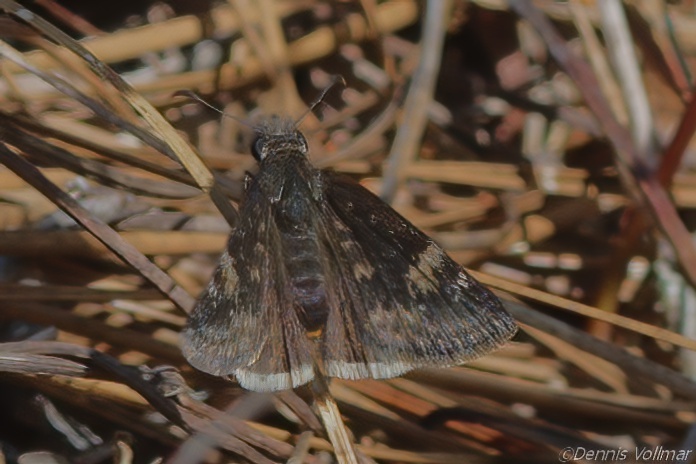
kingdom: Animalia
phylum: Arthropoda
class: Insecta
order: Lepidoptera
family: Hesperiidae
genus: Erynnis
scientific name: Erynnis zarucco
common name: Zarucco duskywing
